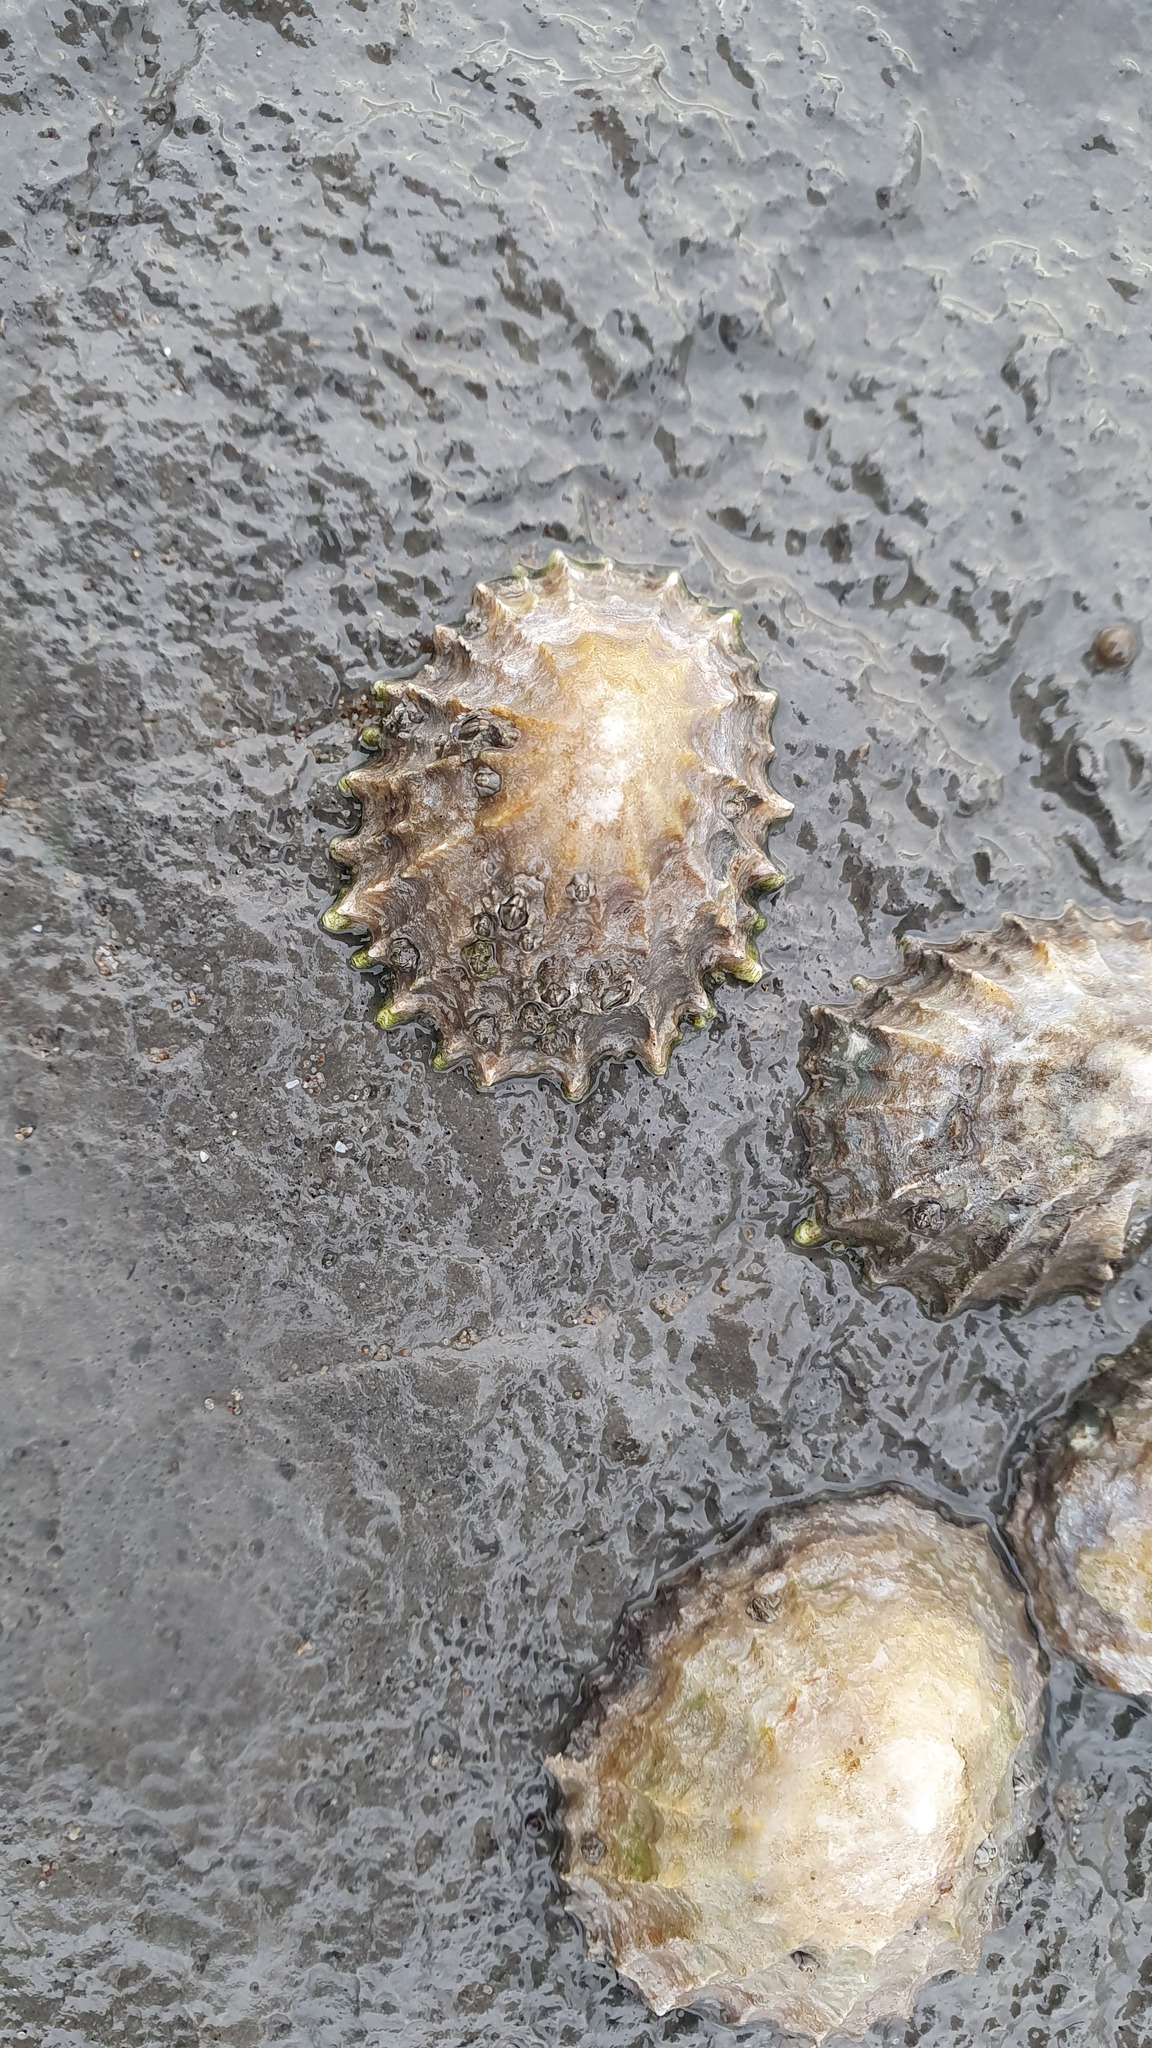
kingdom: Animalia
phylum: Mollusca
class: Gastropoda
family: Patellidae
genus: Patella
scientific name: Patella
